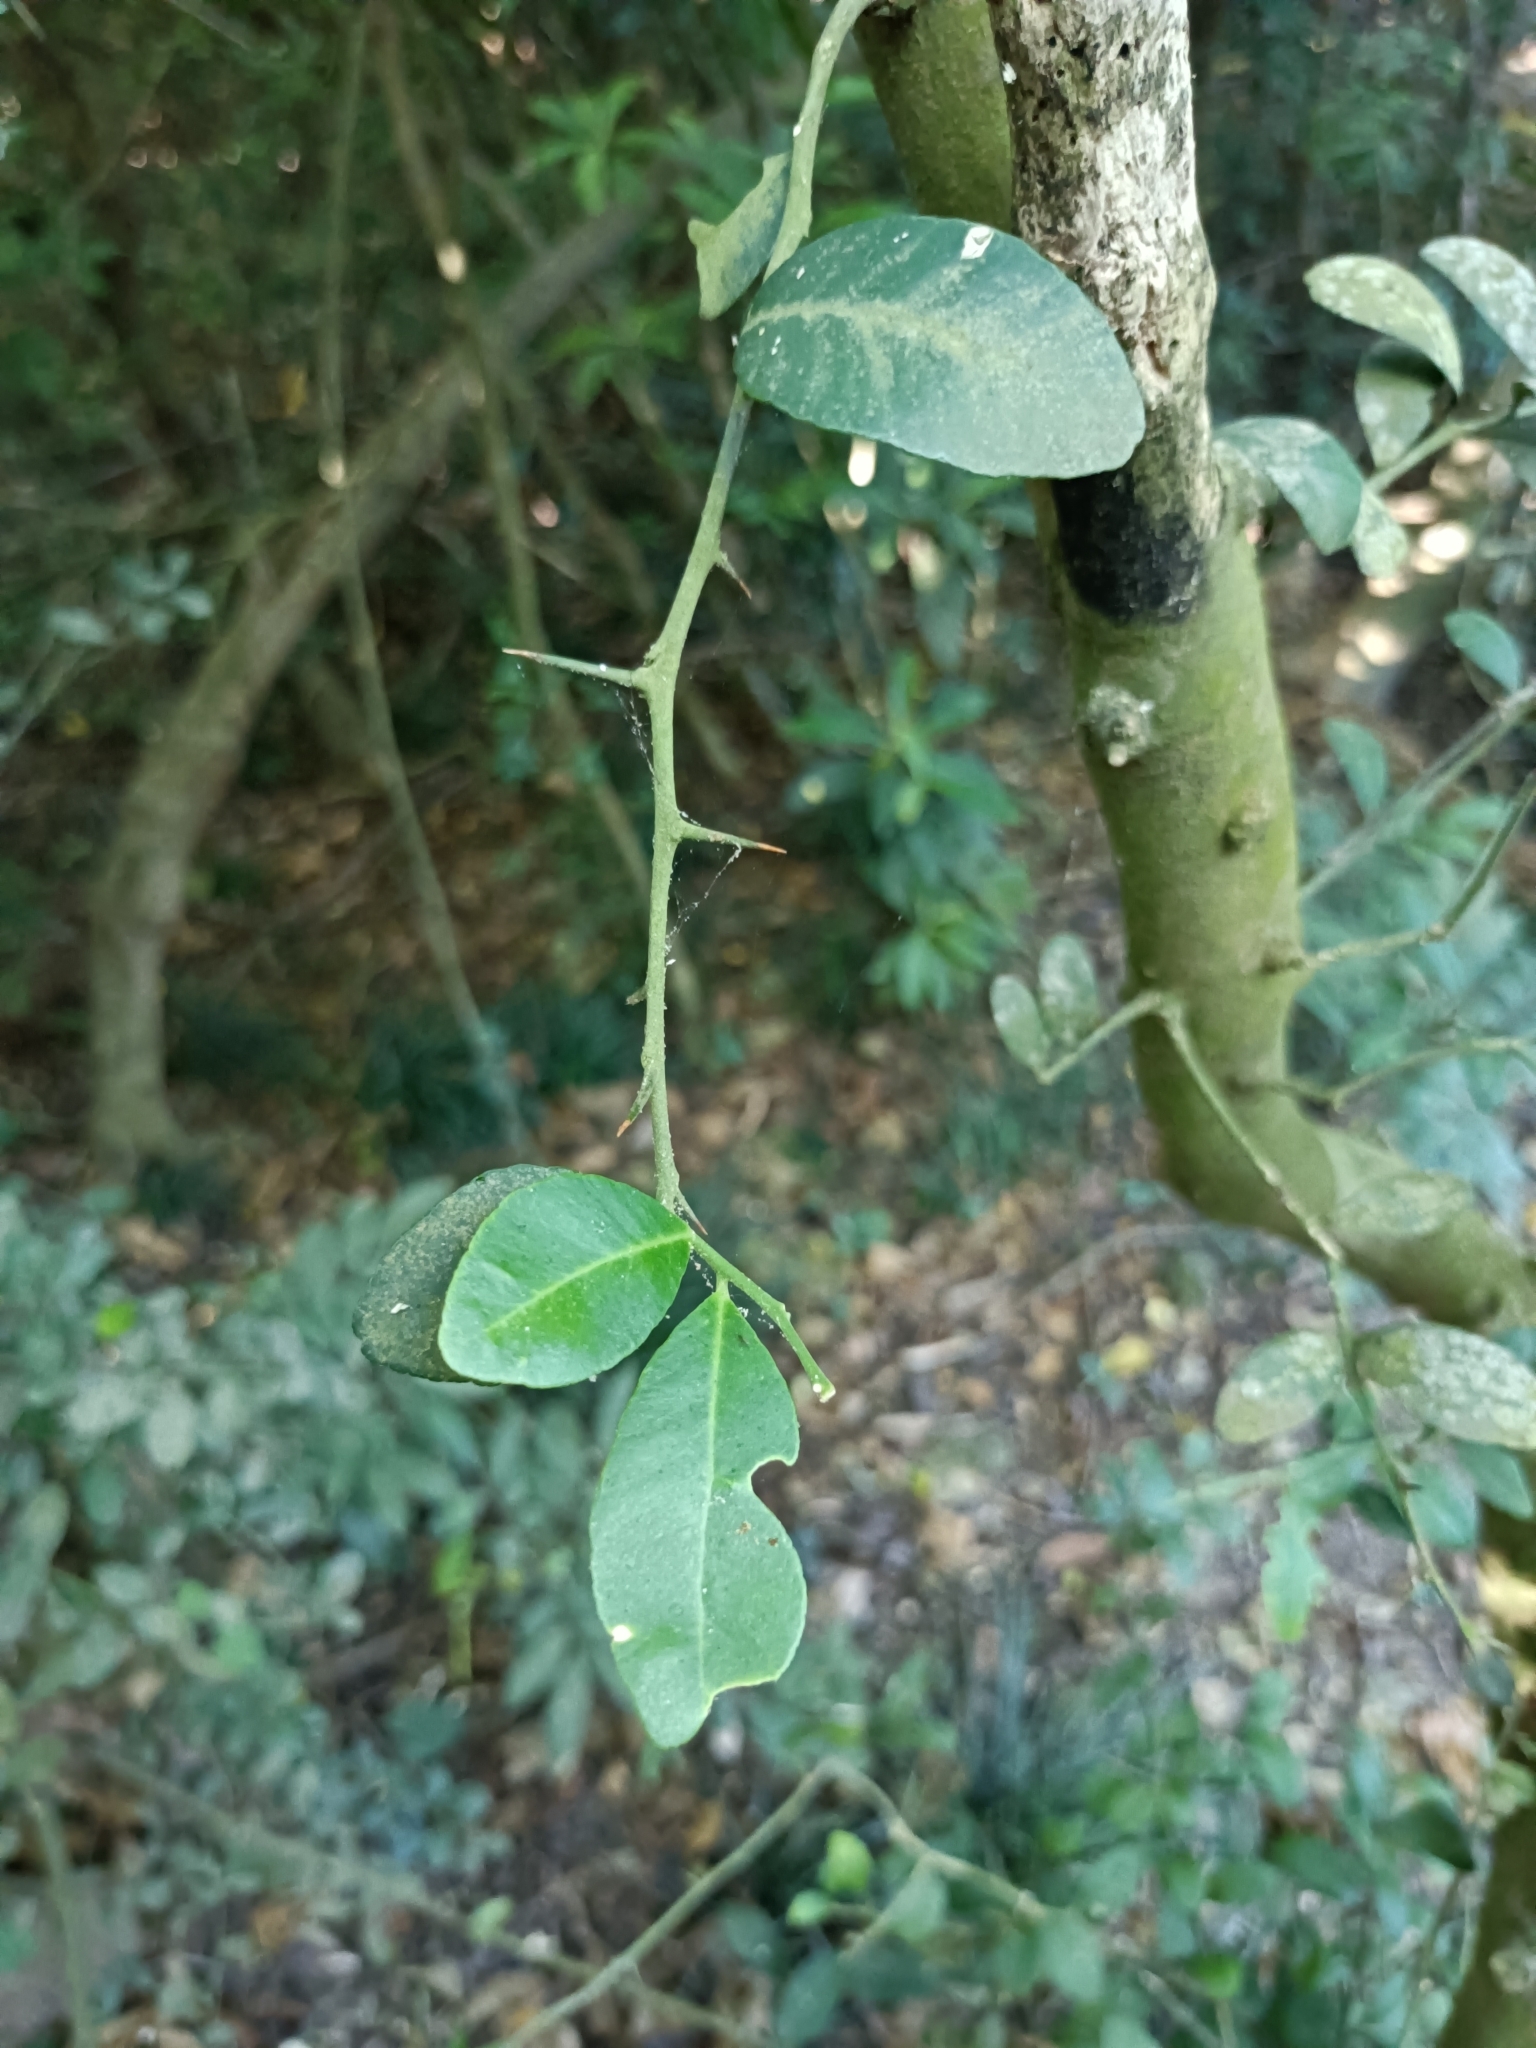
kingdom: Plantae
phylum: Tracheophyta
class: Magnoliopsida
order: Sapindales
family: Rutaceae
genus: Atalantia
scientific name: Atalantia buxifolia
